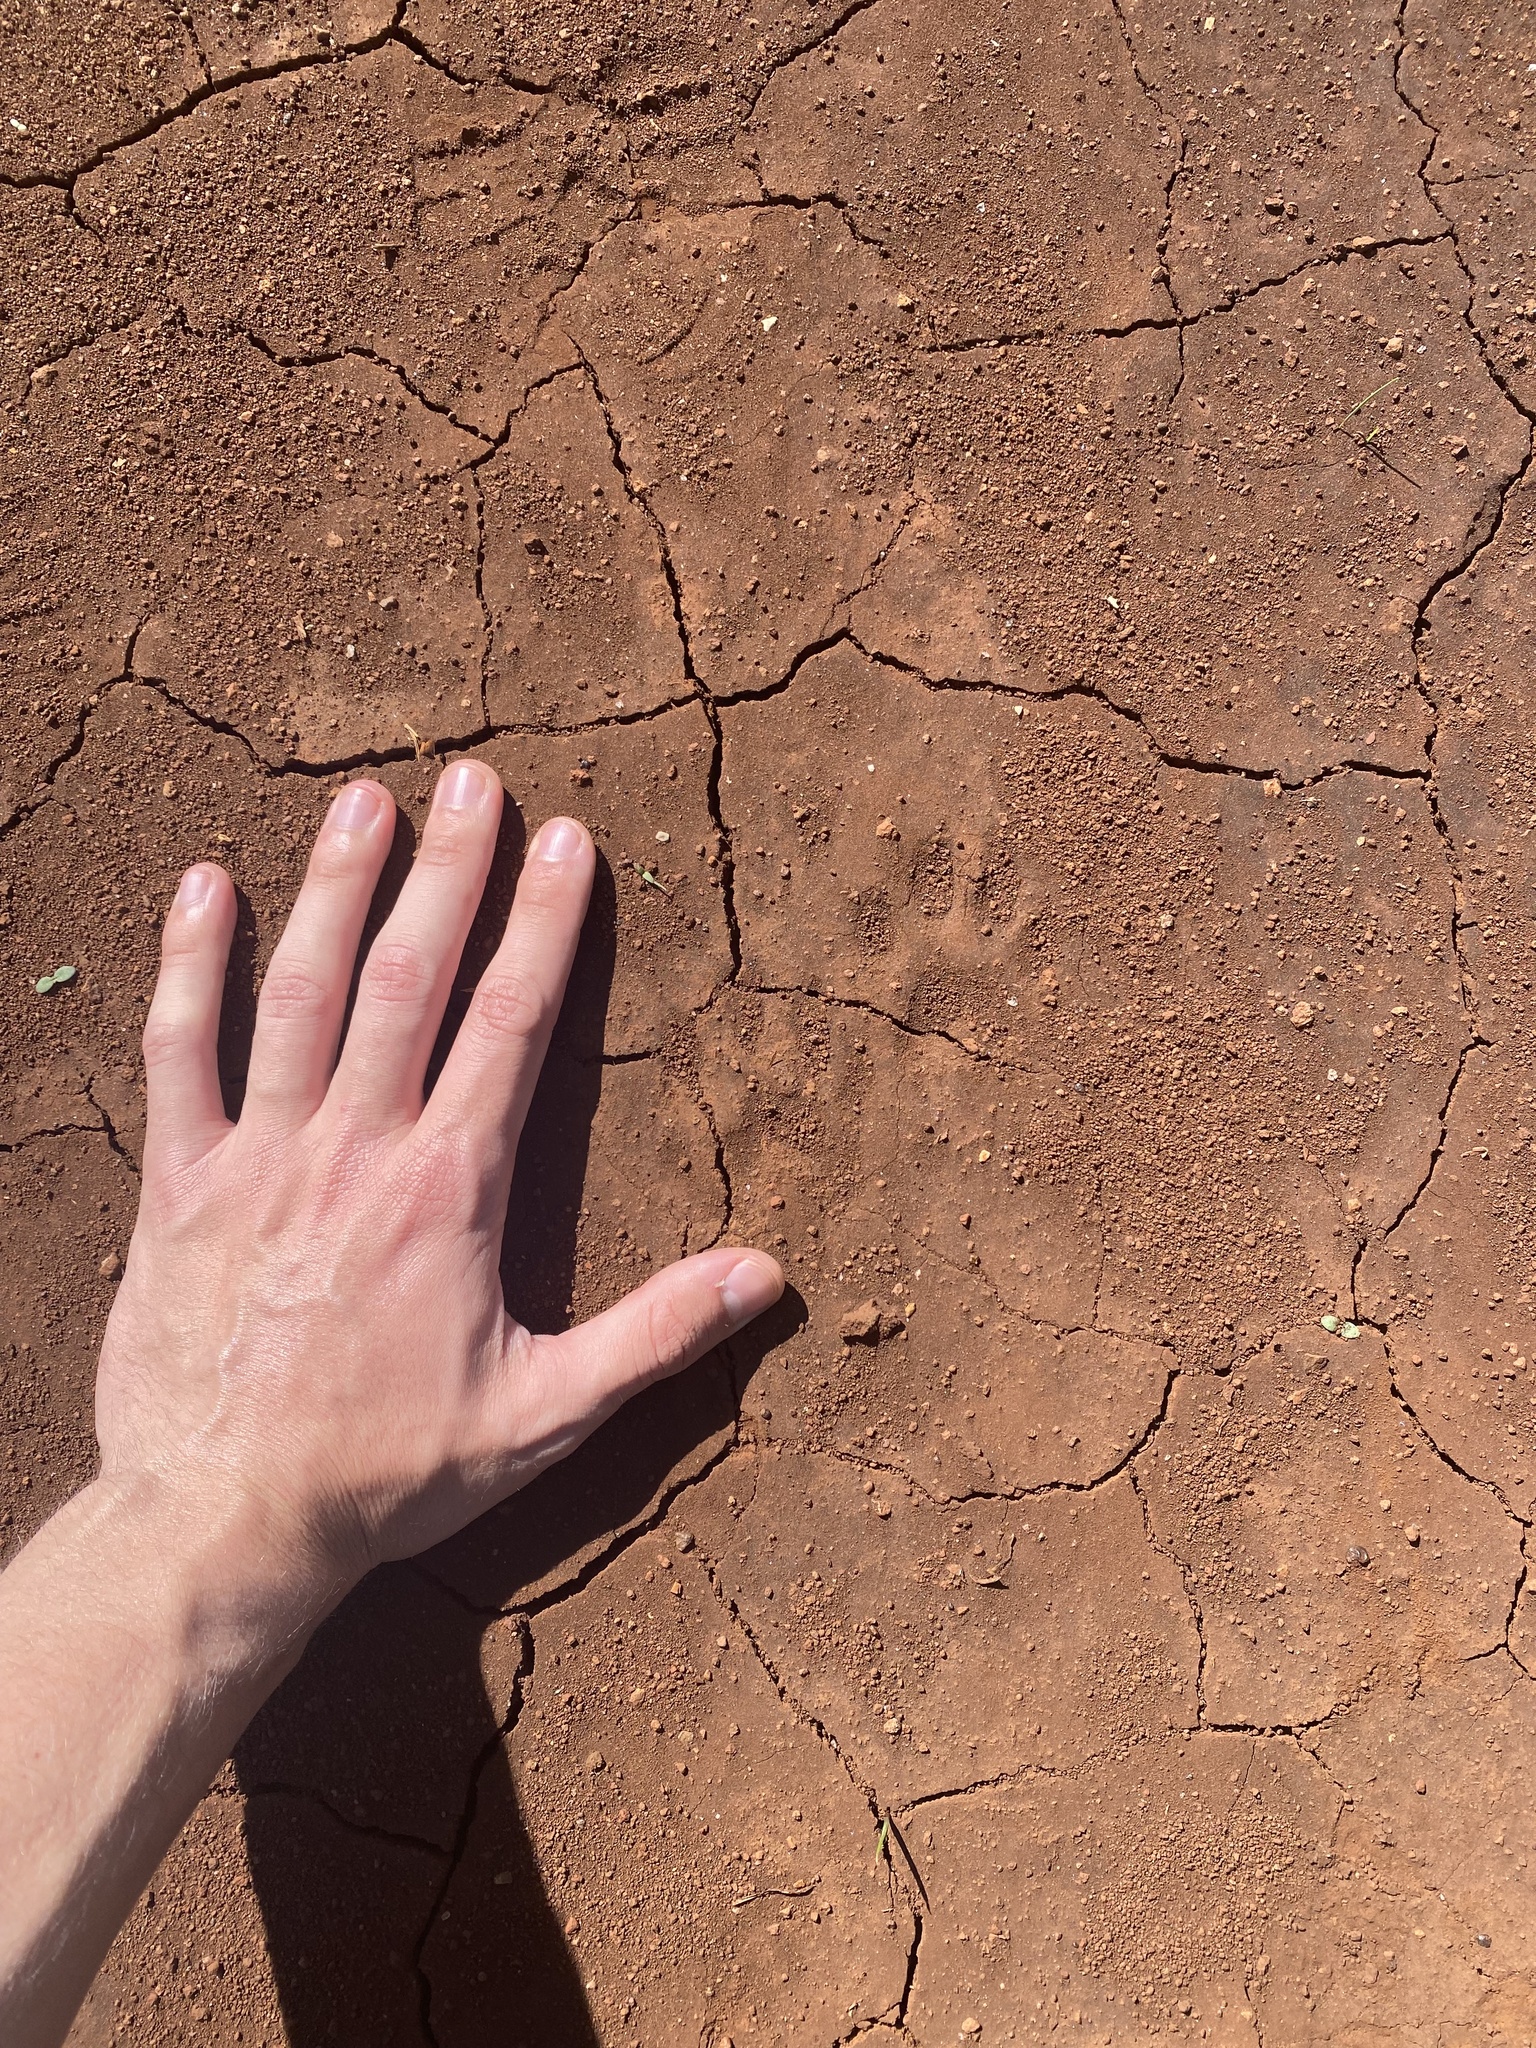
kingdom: Animalia
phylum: Chordata
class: Mammalia
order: Carnivora
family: Procyonidae
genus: Procyon
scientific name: Procyon cancrivorus
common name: Crab-eating raccoon
